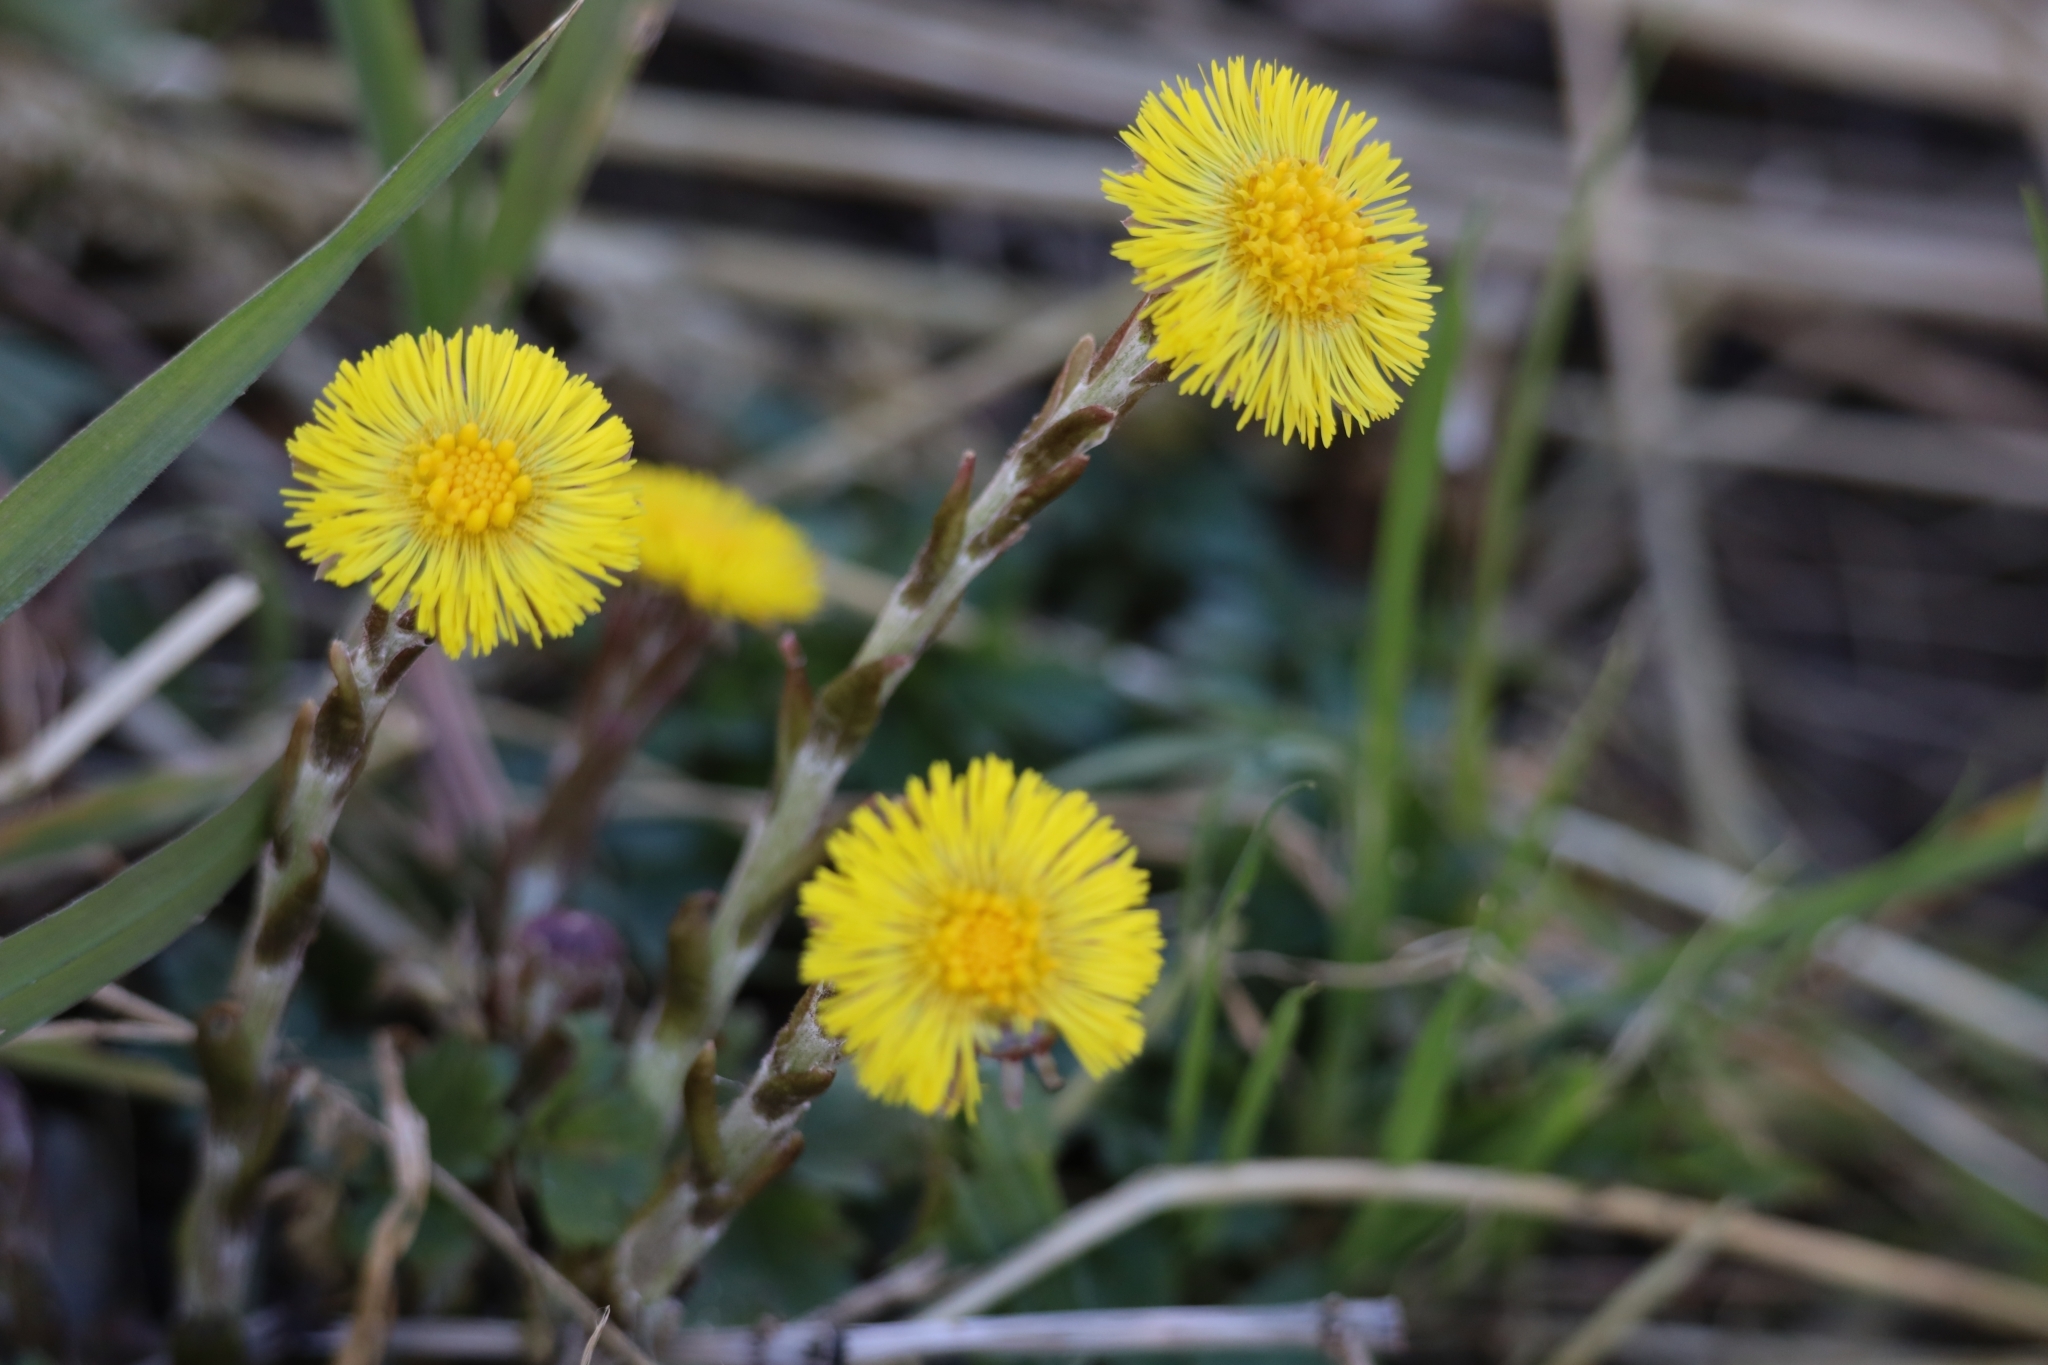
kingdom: Plantae
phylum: Tracheophyta
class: Magnoliopsida
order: Asterales
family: Asteraceae
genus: Tussilago
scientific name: Tussilago farfara
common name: Coltsfoot
